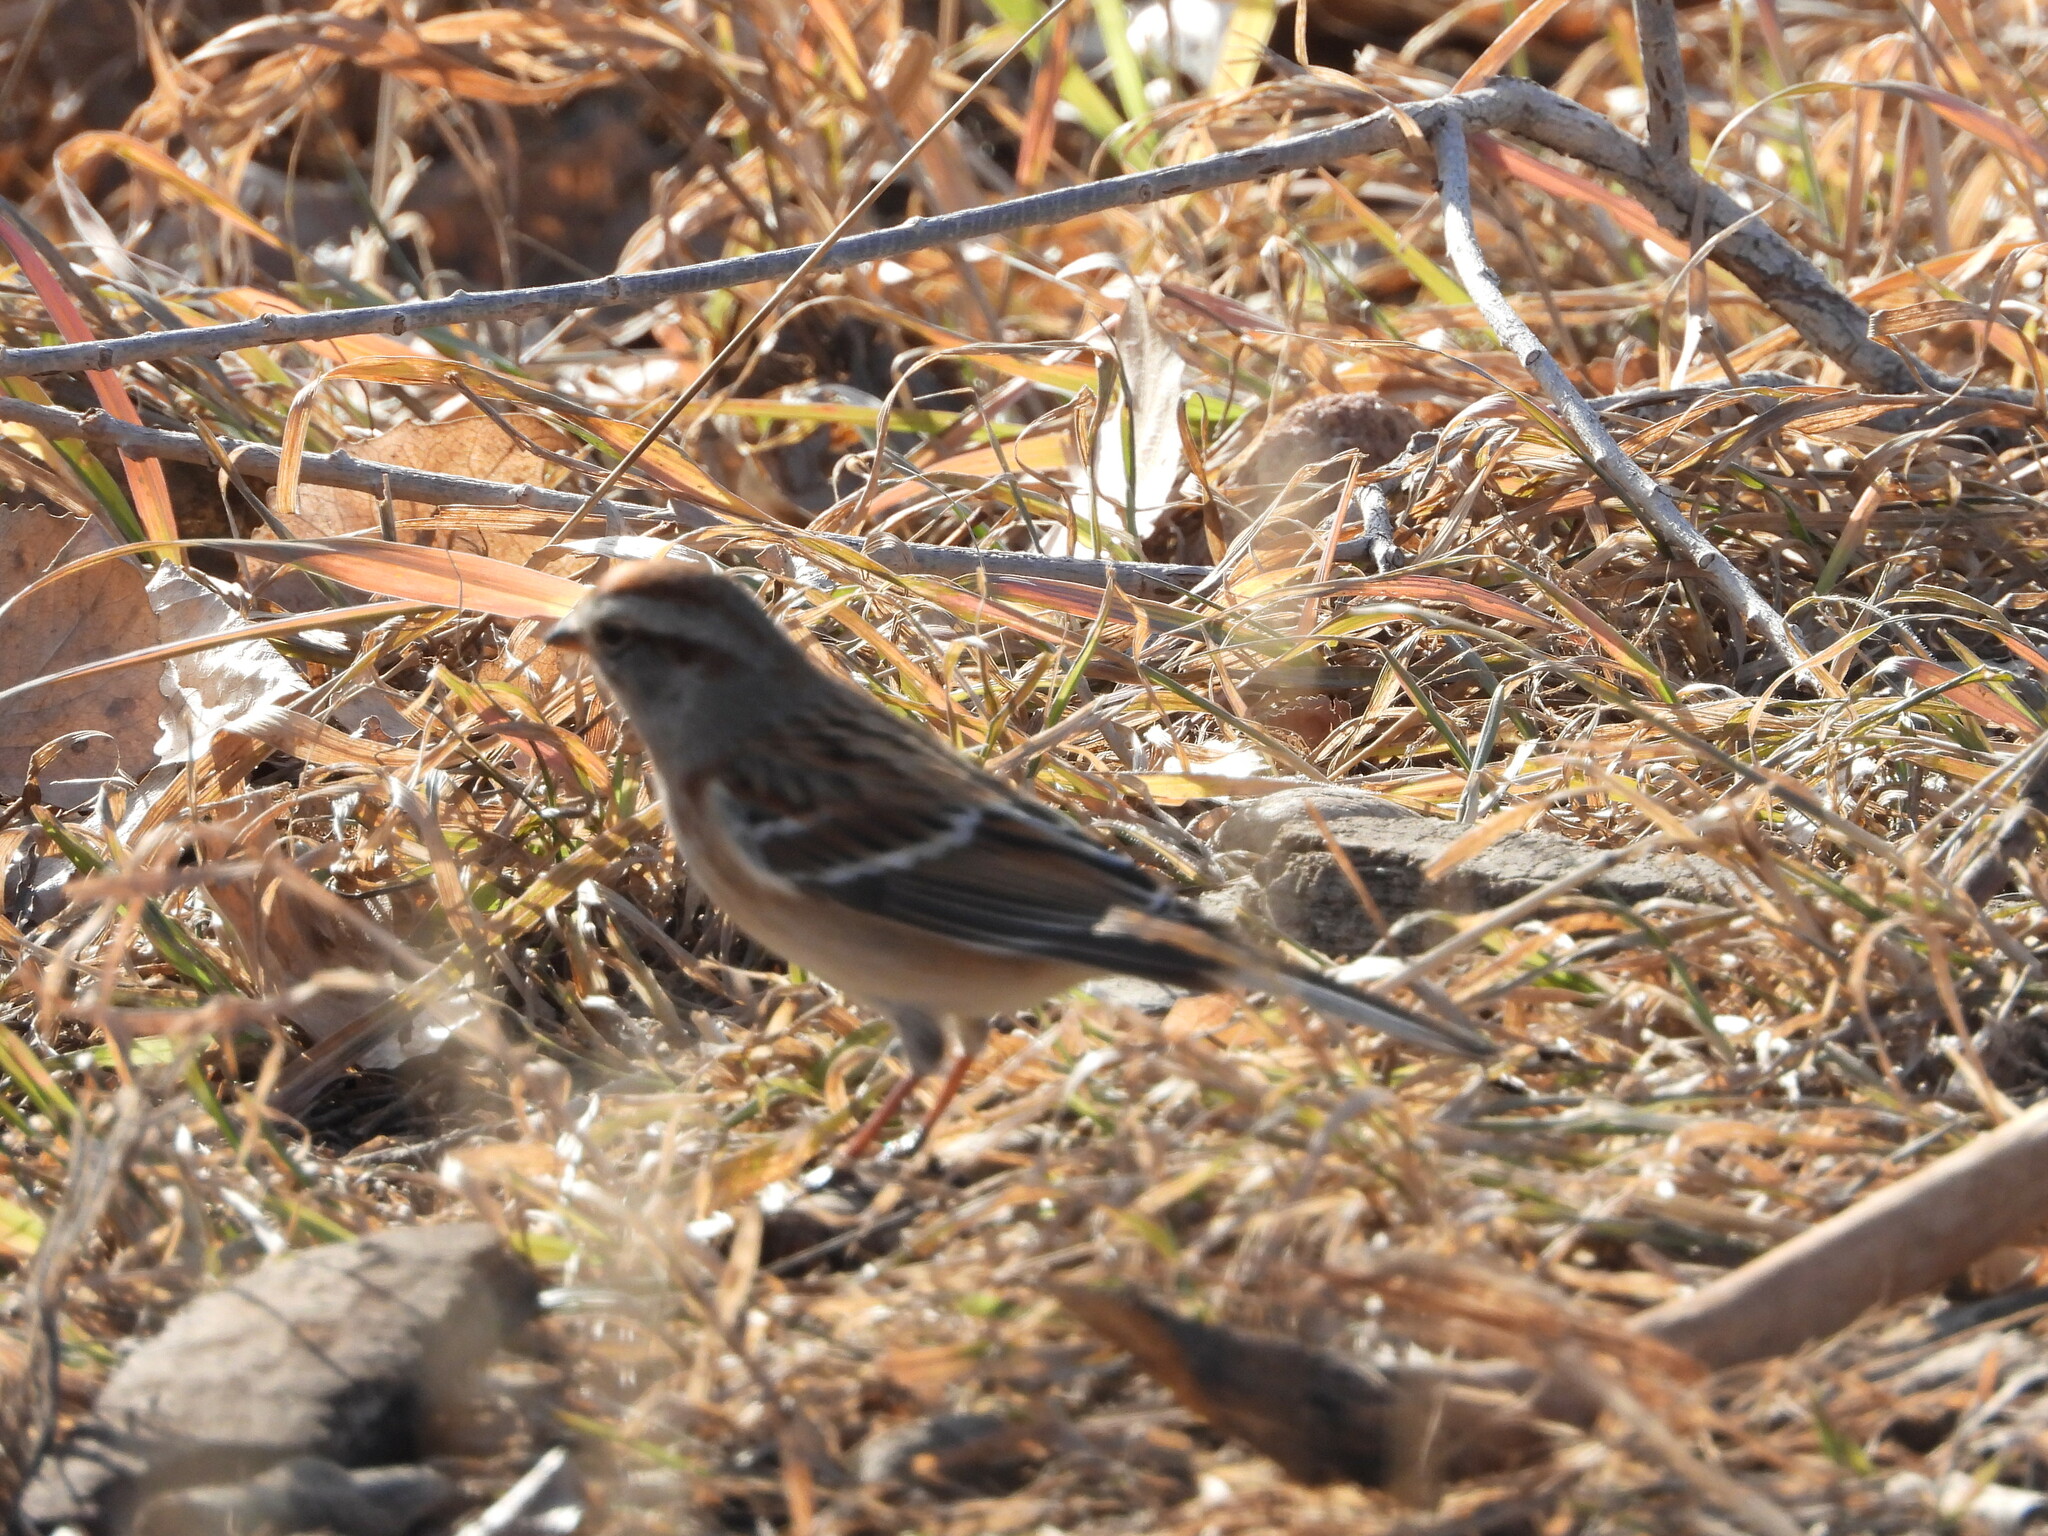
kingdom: Animalia
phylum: Chordata
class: Aves
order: Passeriformes
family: Passerellidae
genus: Spizelloides
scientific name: Spizelloides arborea
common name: American tree sparrow
